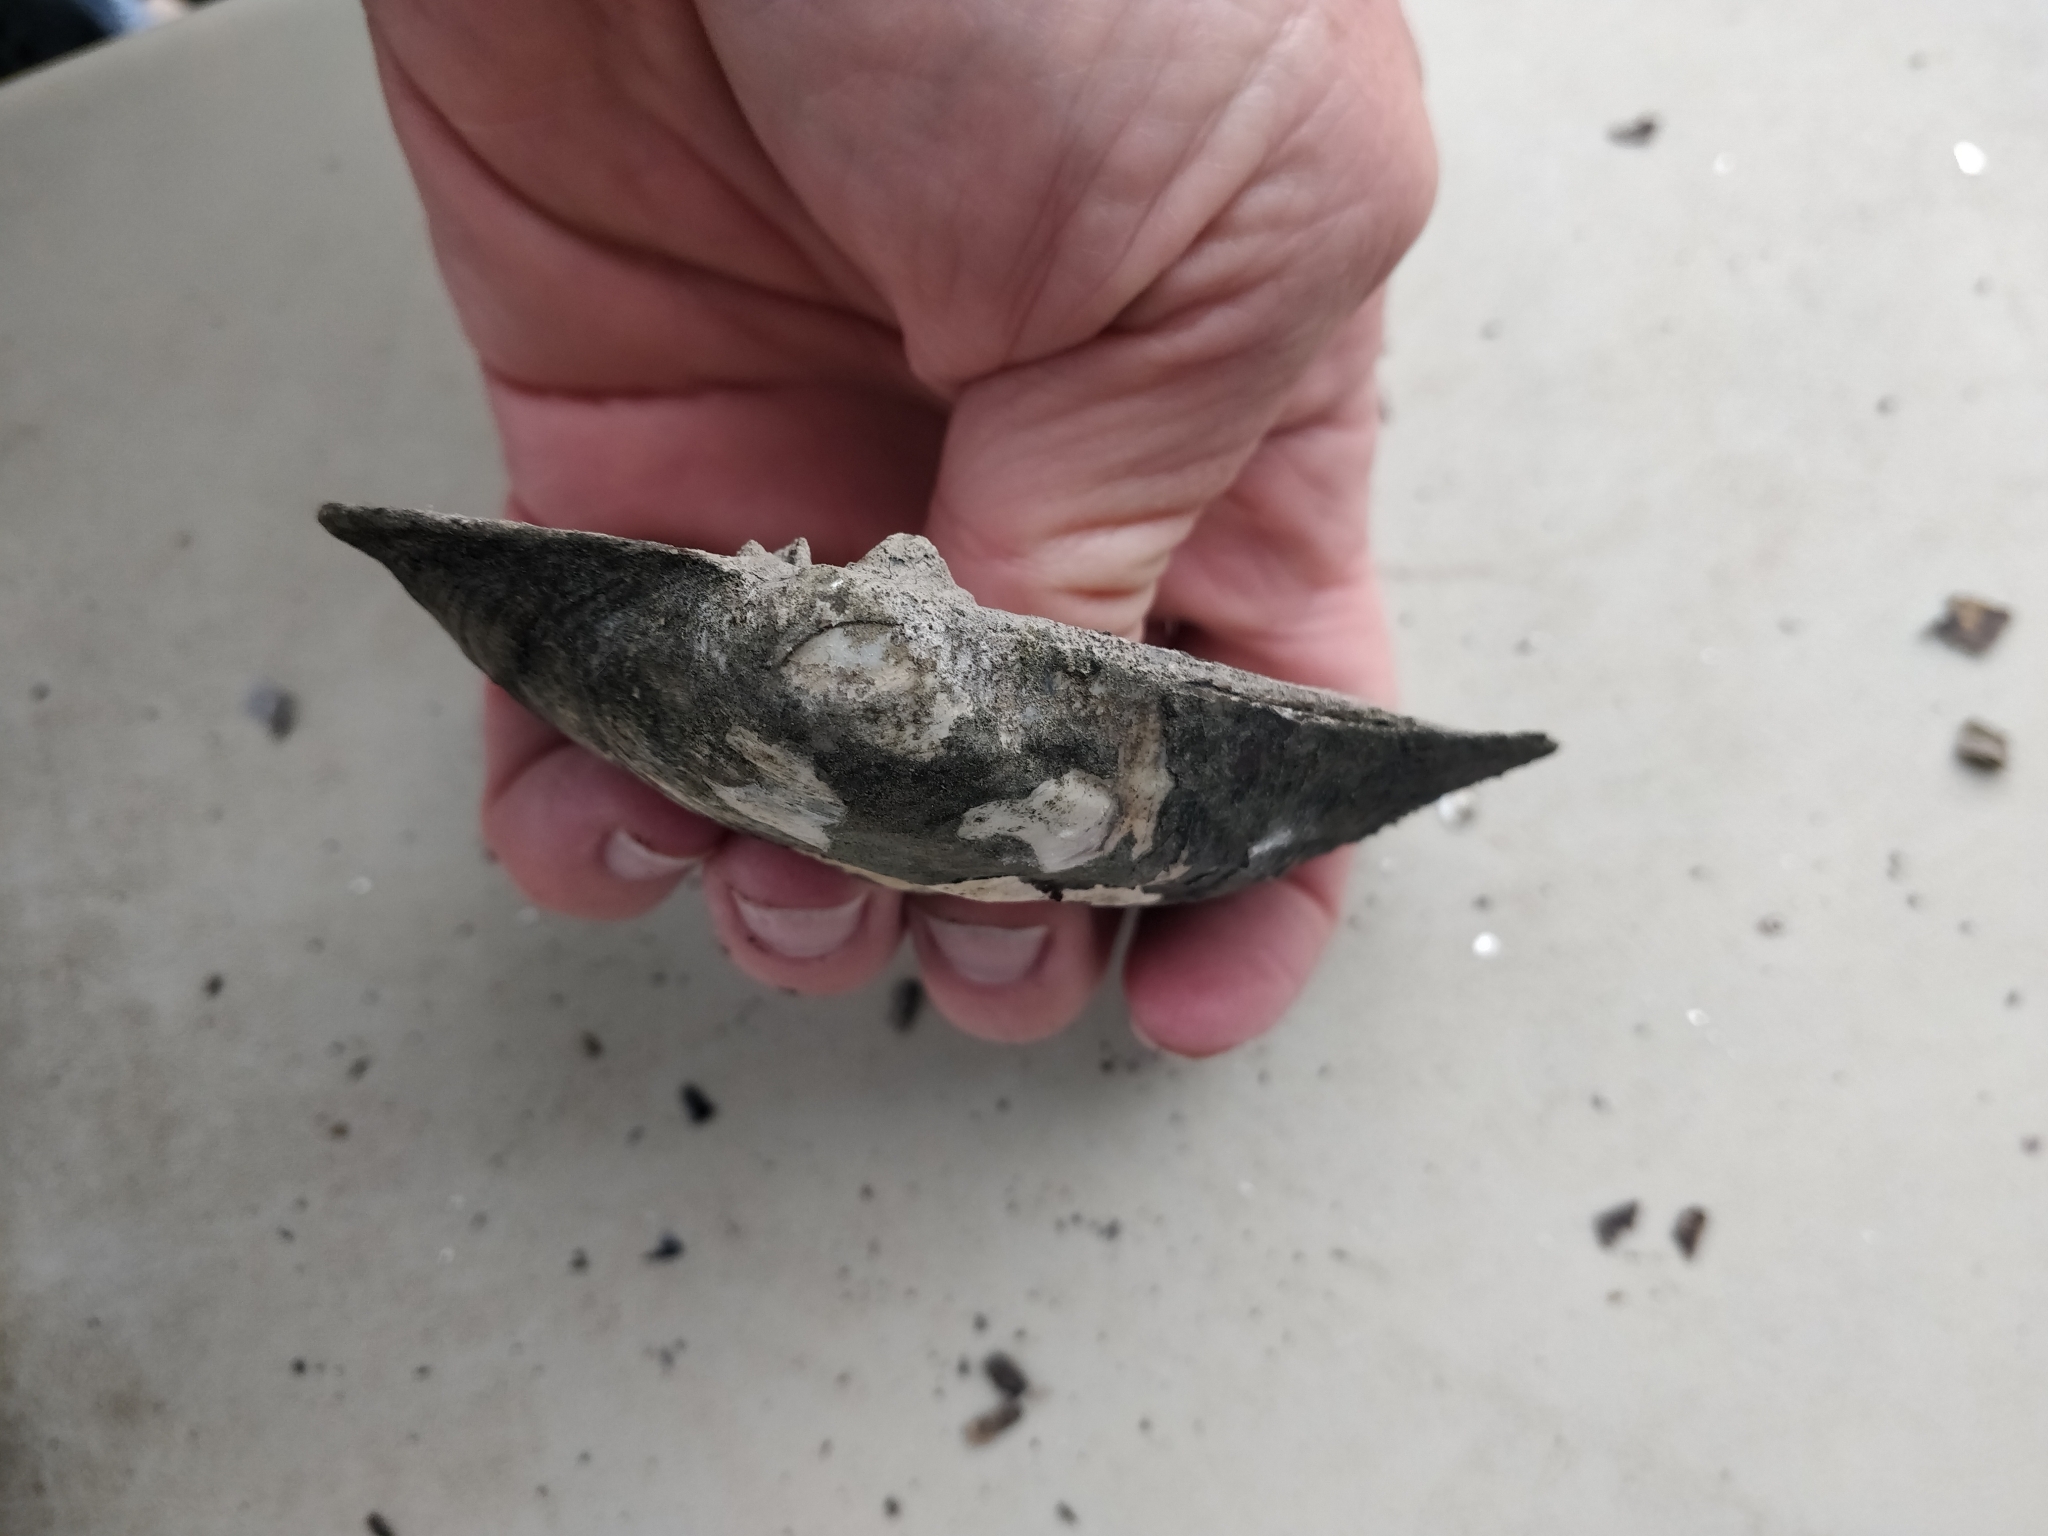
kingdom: Animalia
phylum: Mollusca
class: Bivalvia
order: Unionida
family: Unionidae
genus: Amblema
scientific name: Amblema plicata
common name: Threeridge
